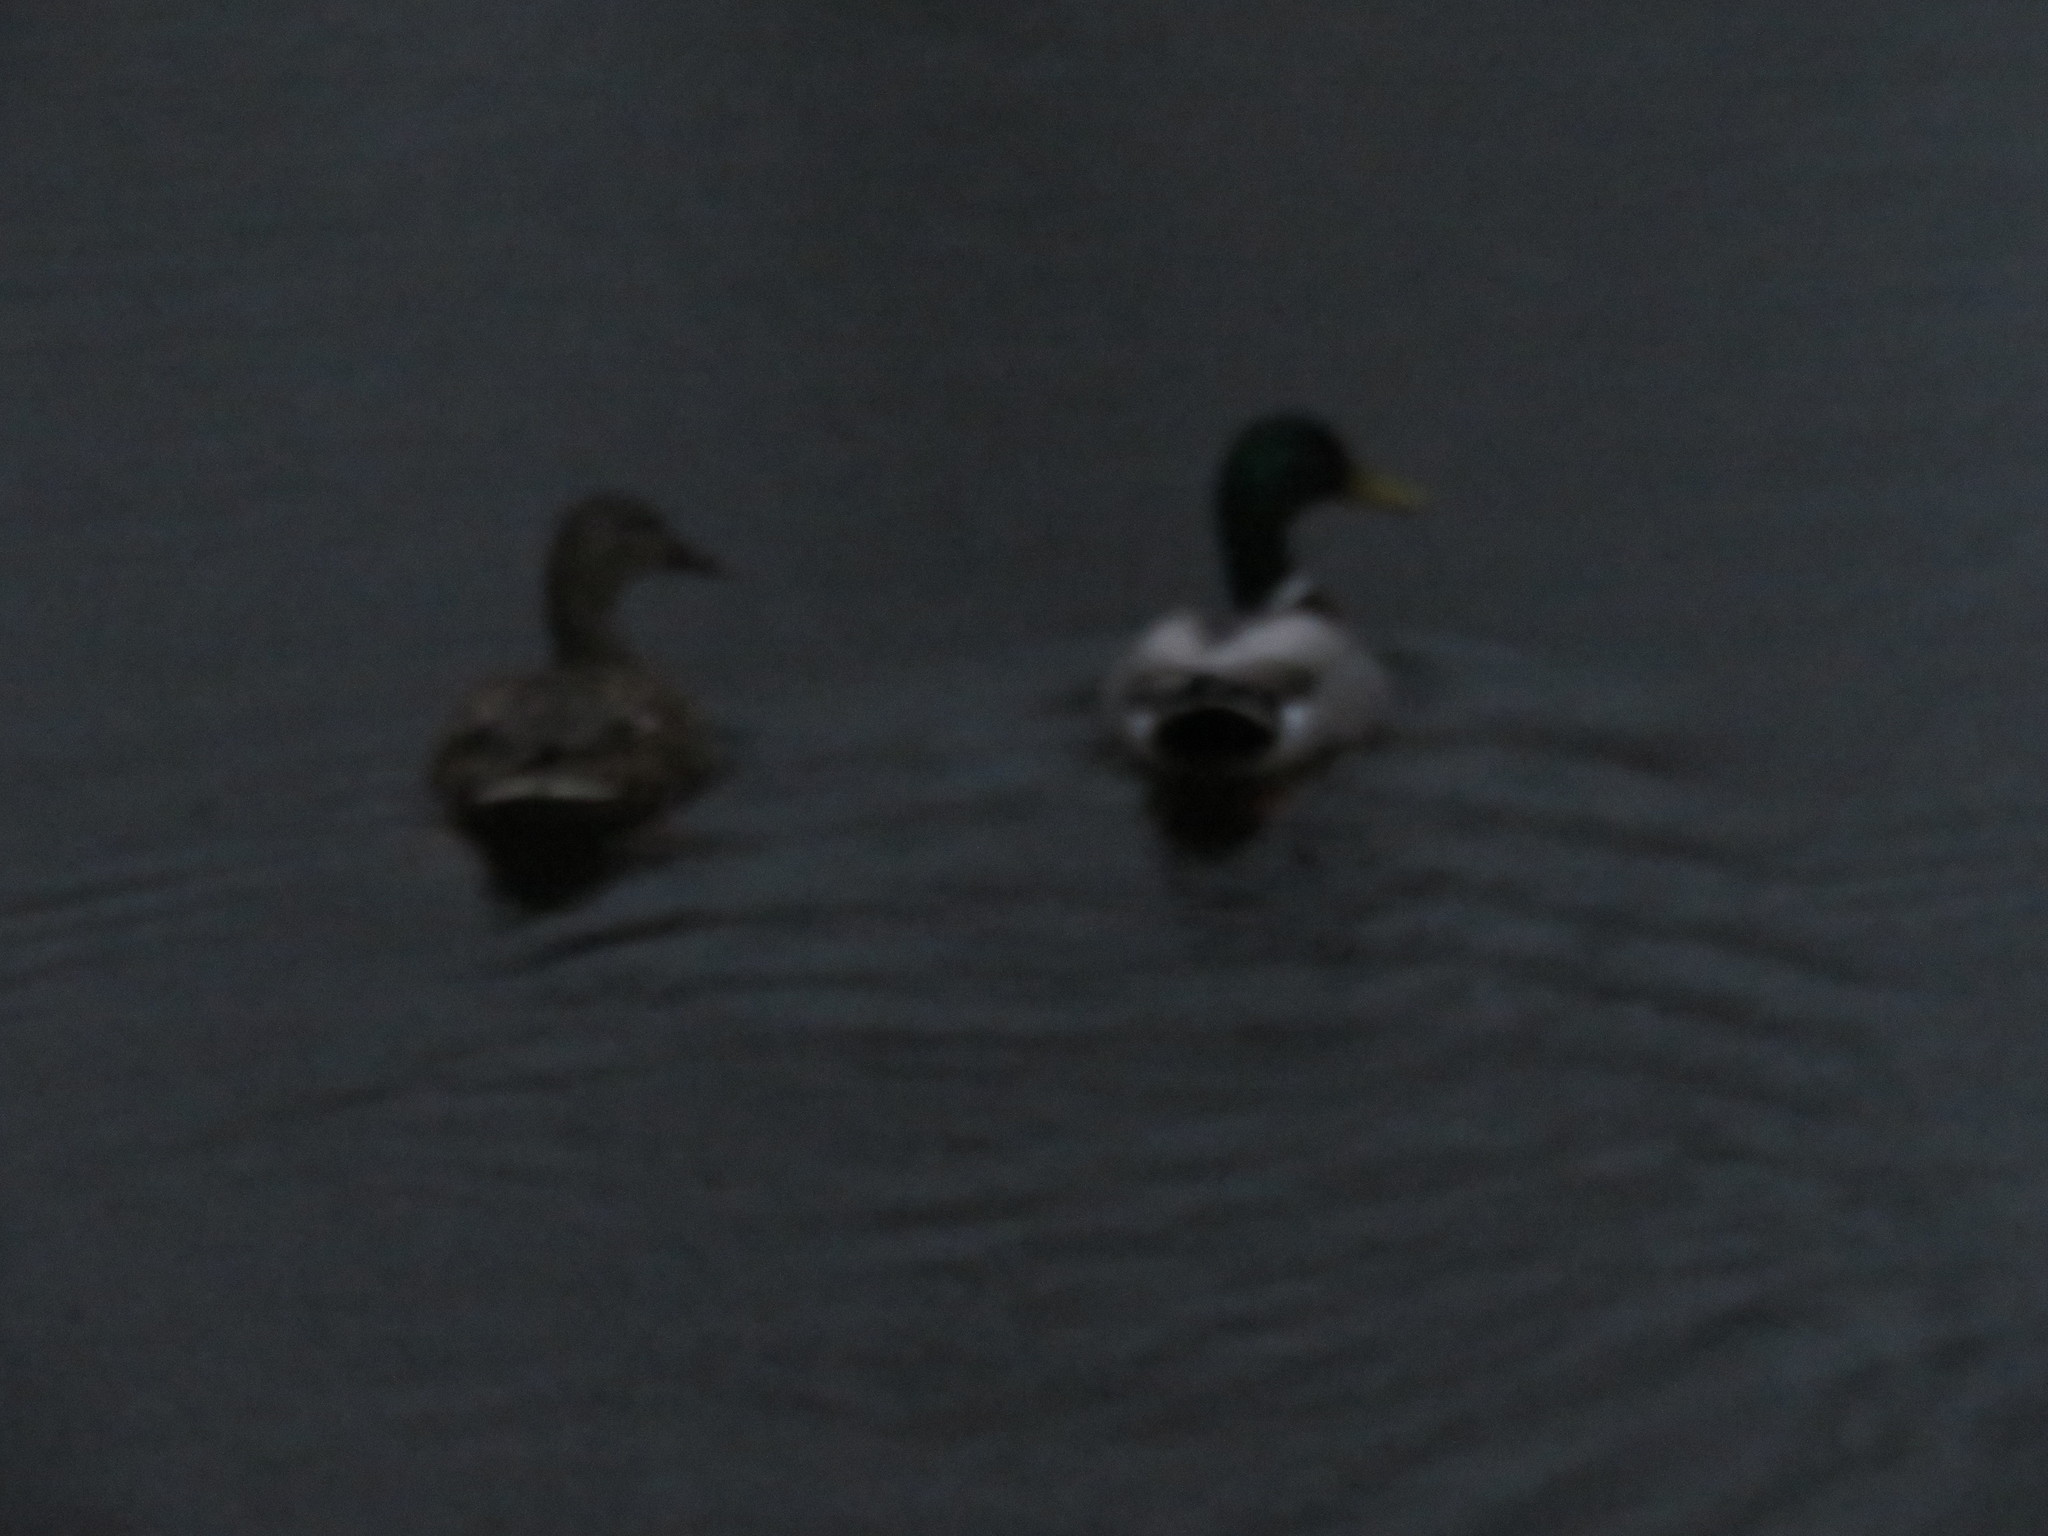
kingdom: Animalia
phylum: Chordata
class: Aves
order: Anseriformes
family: Anatidae
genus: Anas
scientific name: Anas platyrhynchos
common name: Mallard
